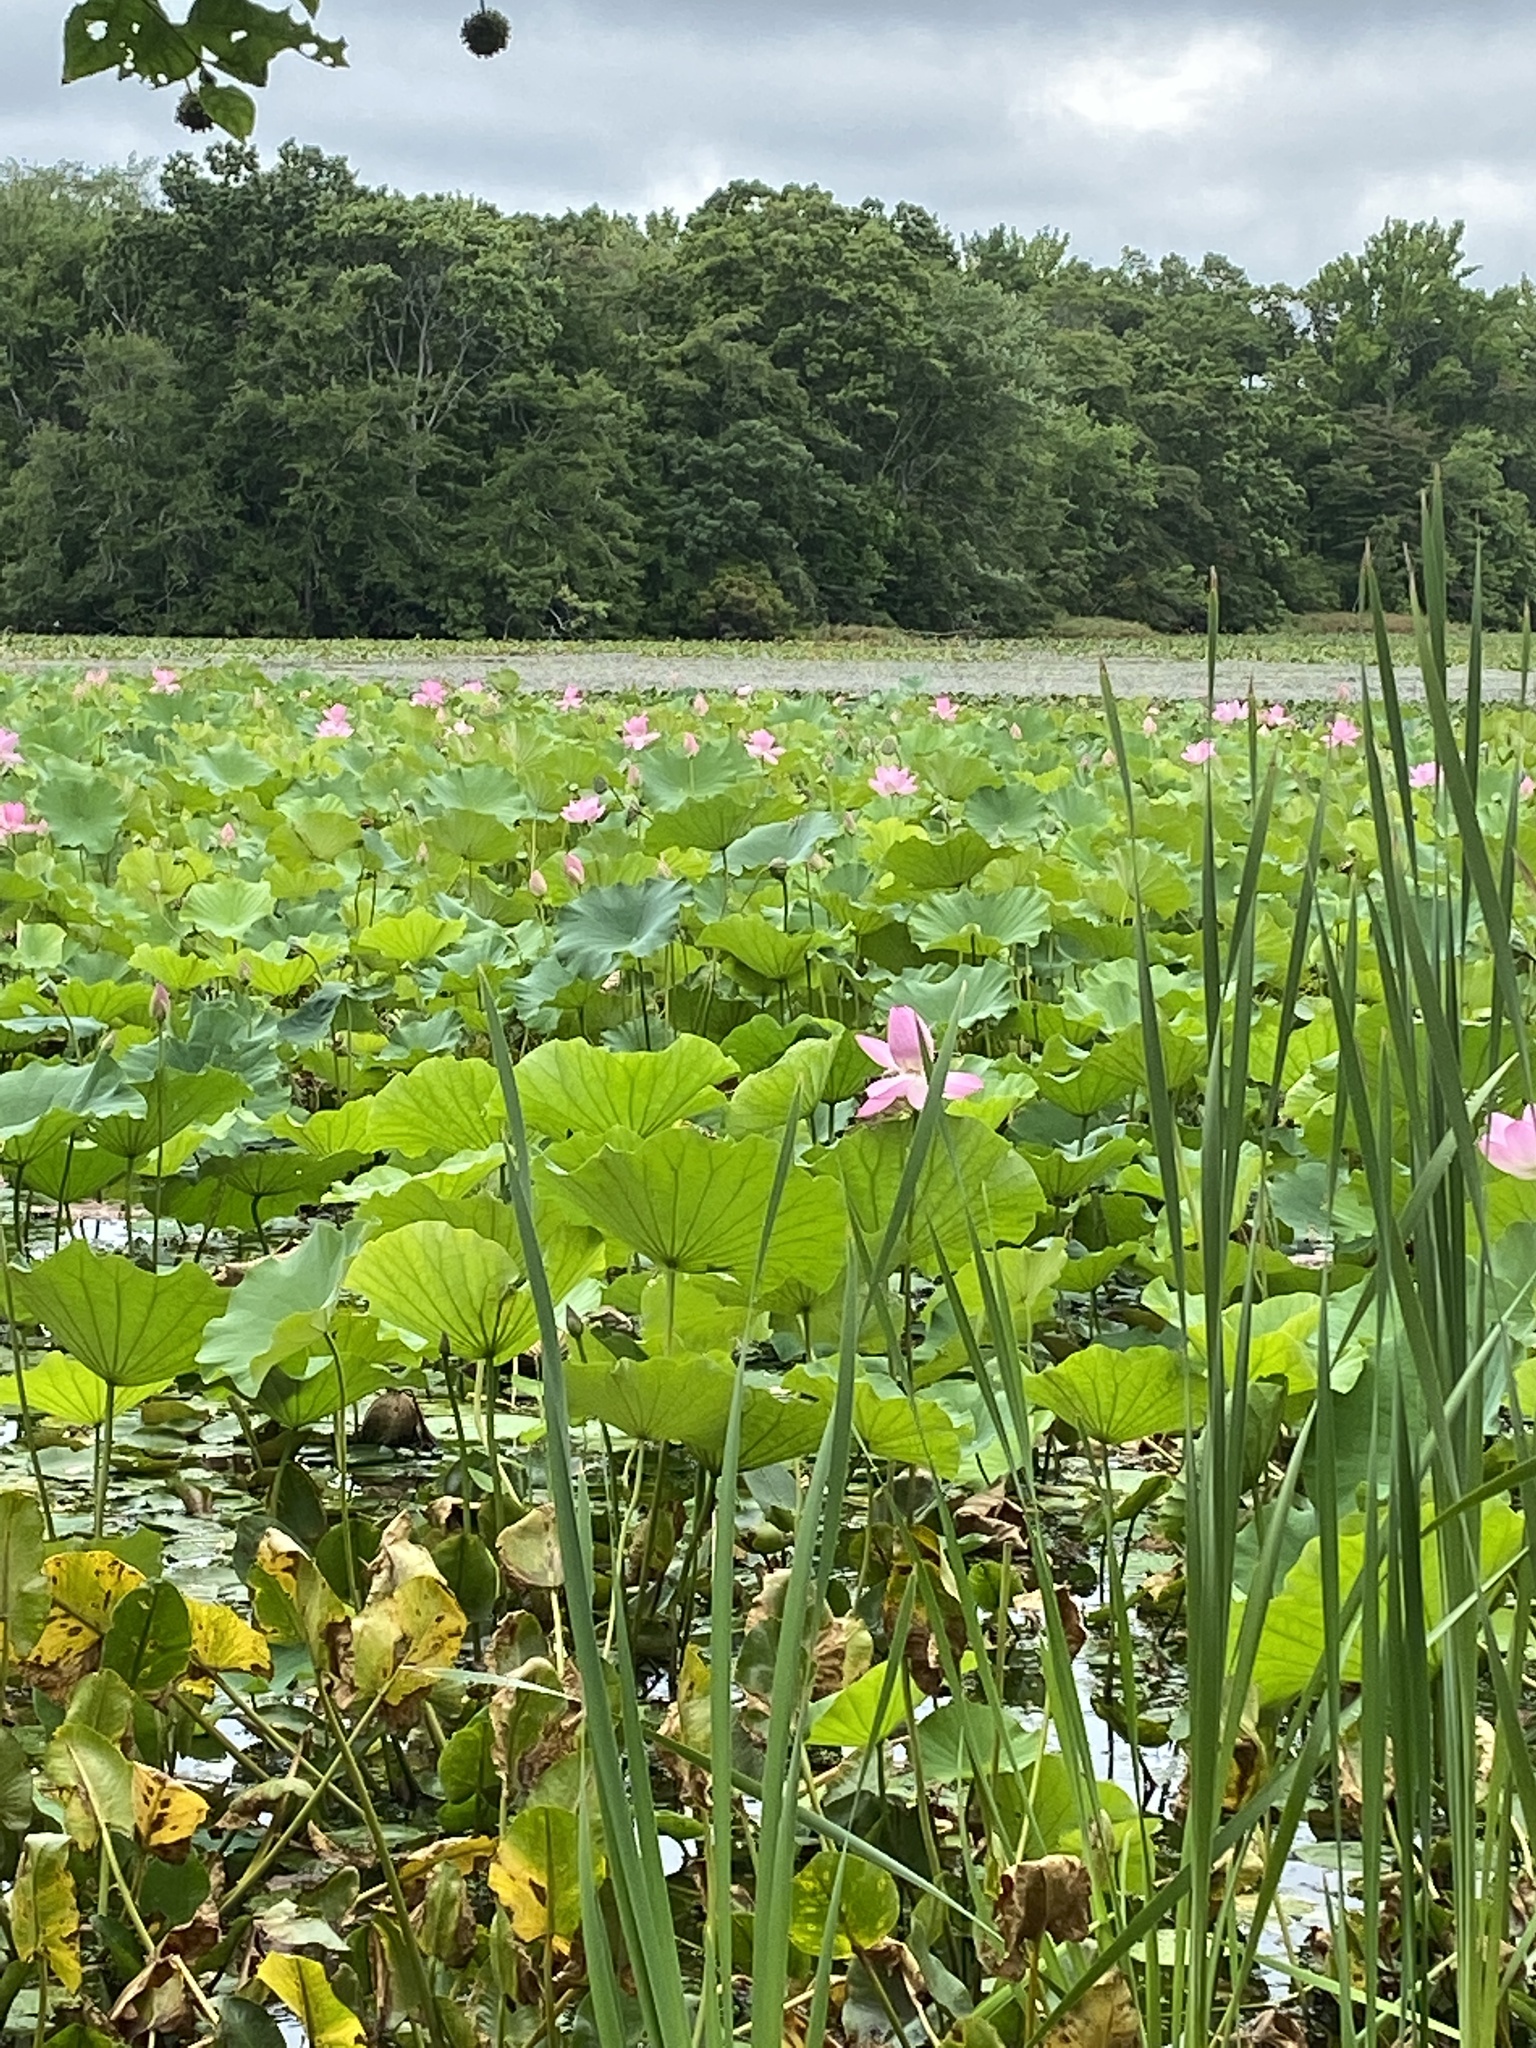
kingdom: Plantae
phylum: Tracheophyta
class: Magnoliopsida
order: Proteales
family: Nelumbonaceae
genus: Nelumbo
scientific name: Nelumbo nucifera
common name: Sacred lotus
